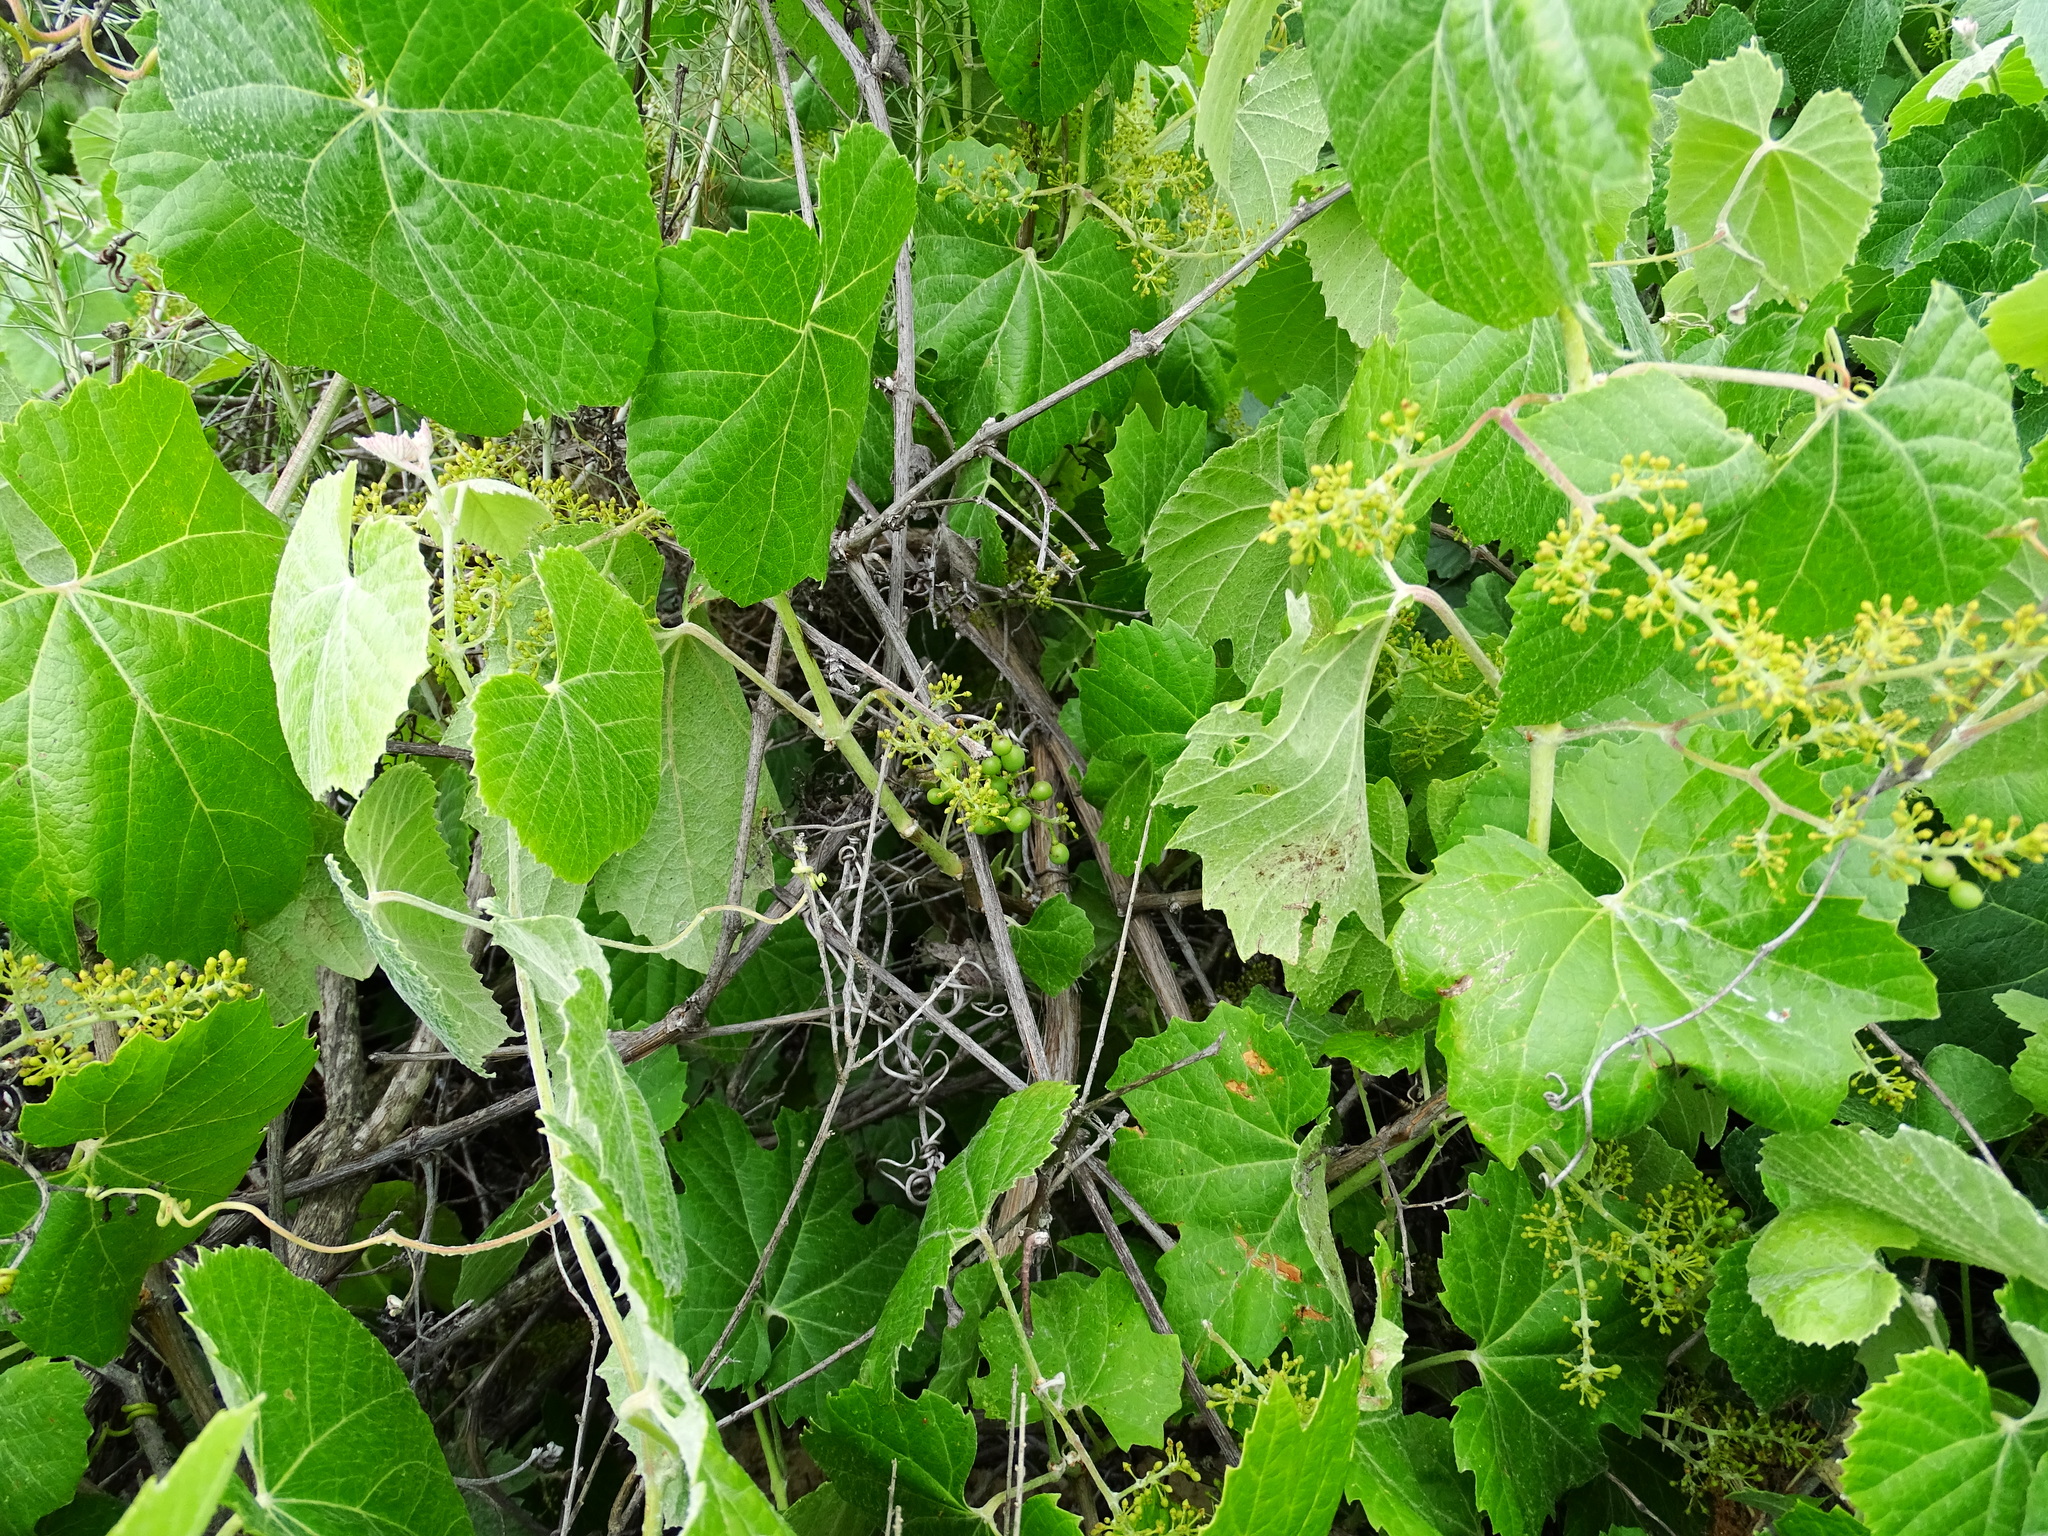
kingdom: Plantae
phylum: Tracheophyta
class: Magnoliopsida
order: Vitales
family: Vitaceae
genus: Vitis
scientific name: Vitis girdiana
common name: Desert wild grape
